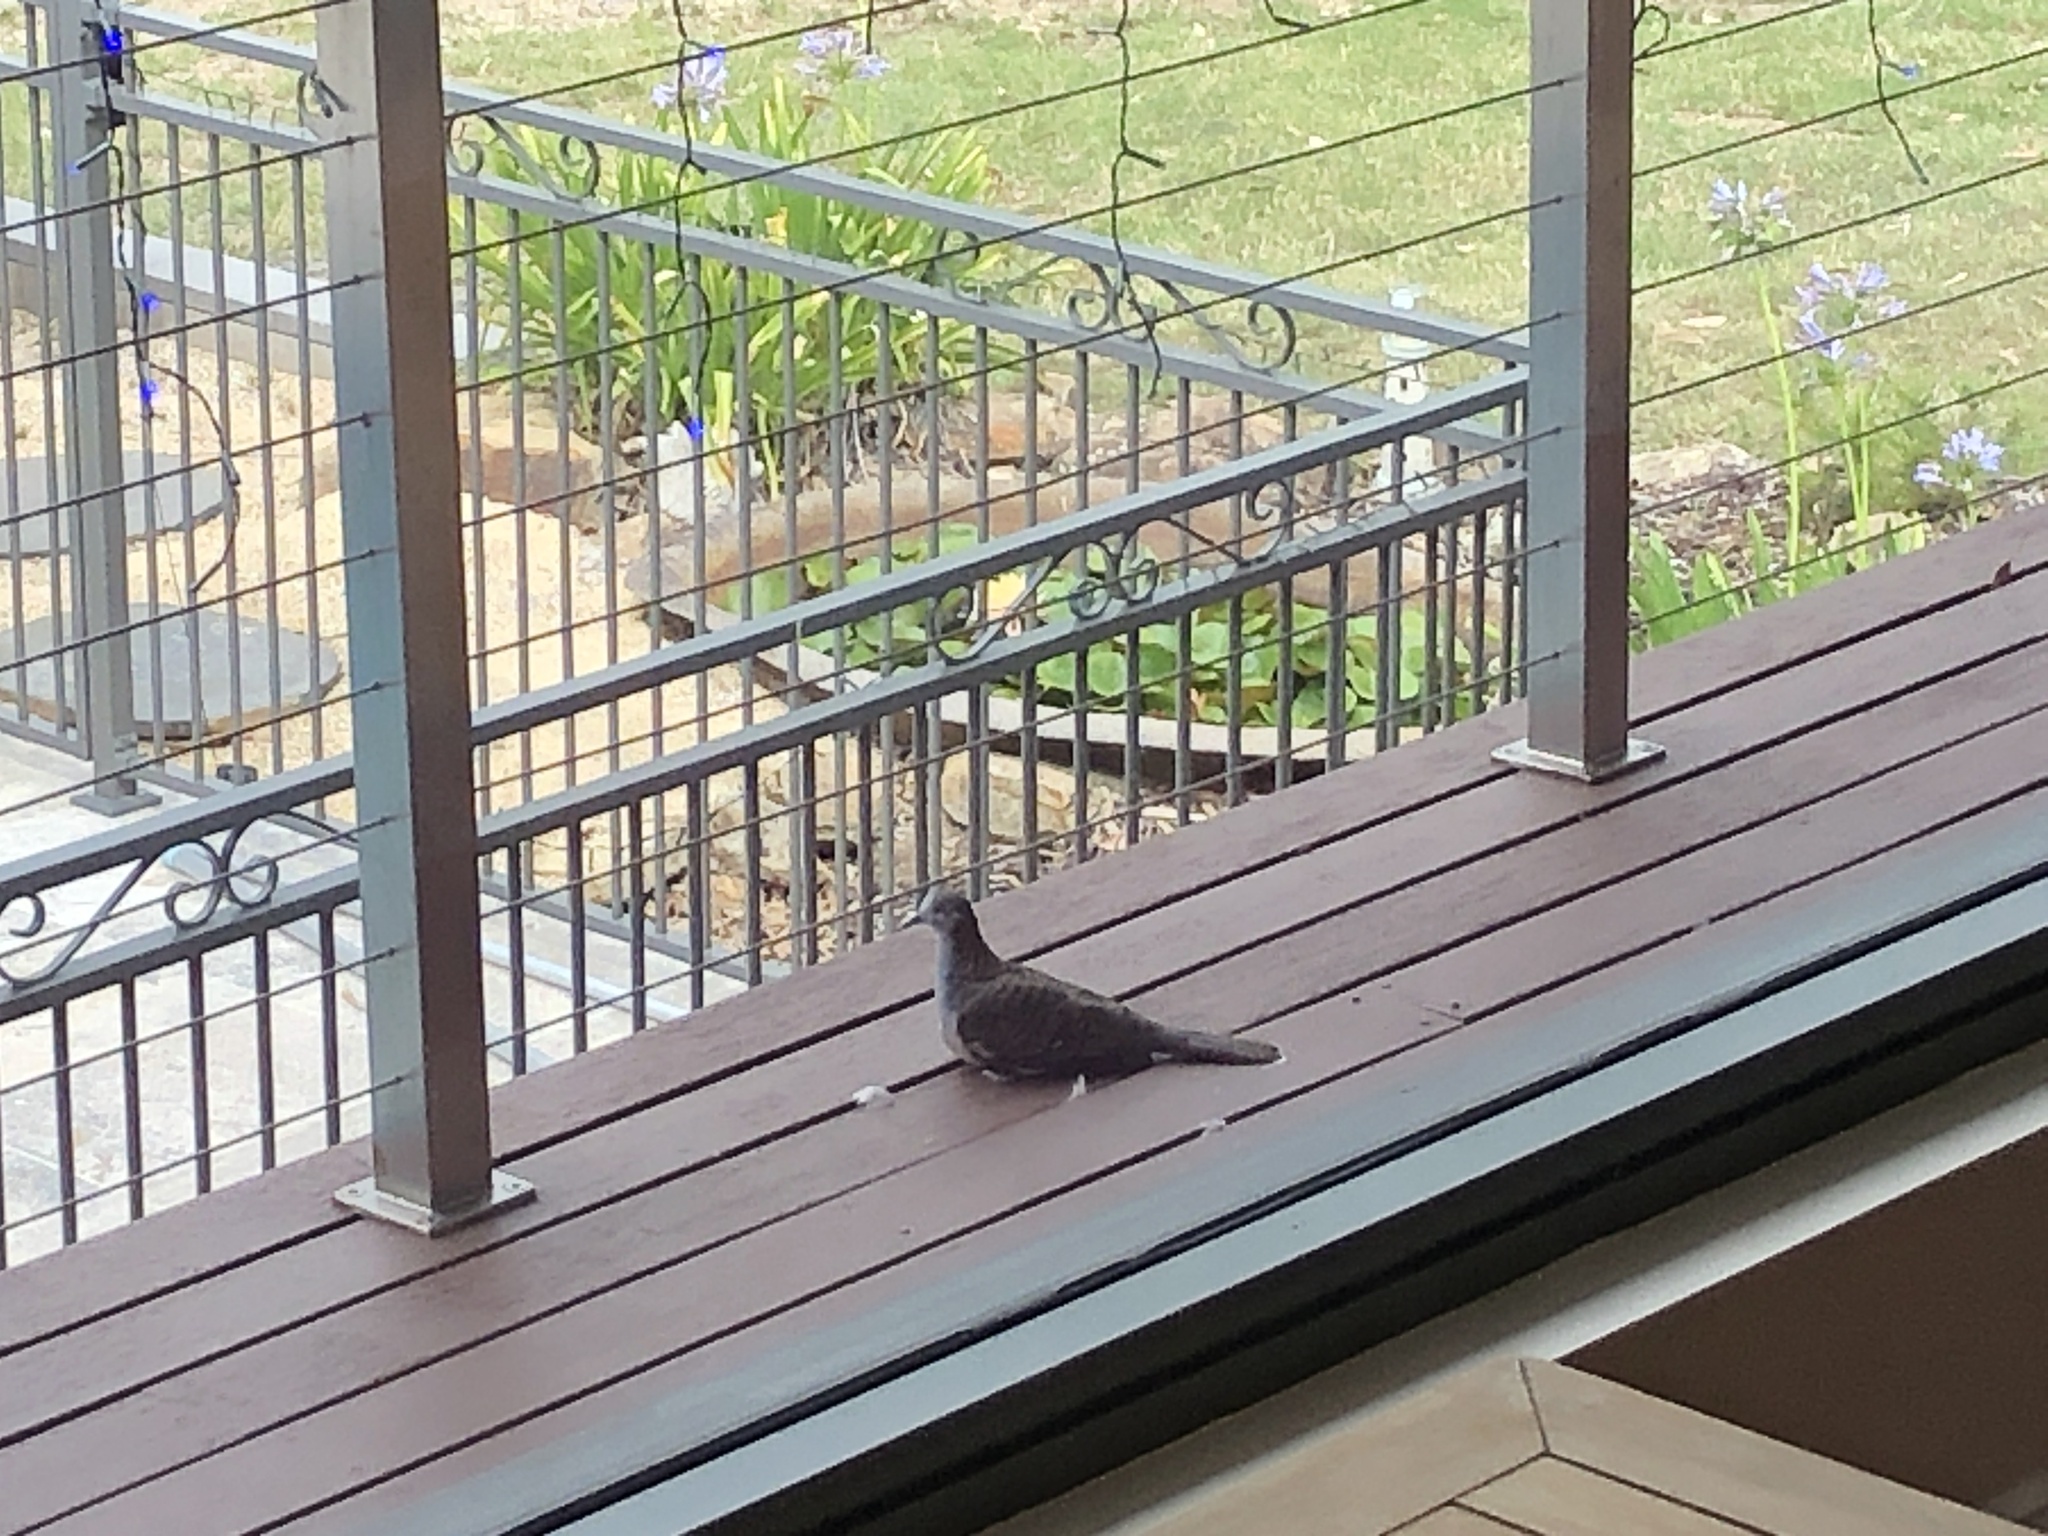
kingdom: Animalia
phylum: Chordata
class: Aves
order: Columbiformes
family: Columbidae
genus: Geopelia
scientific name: Geopelia humeralis
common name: Bar-shouldered dove
